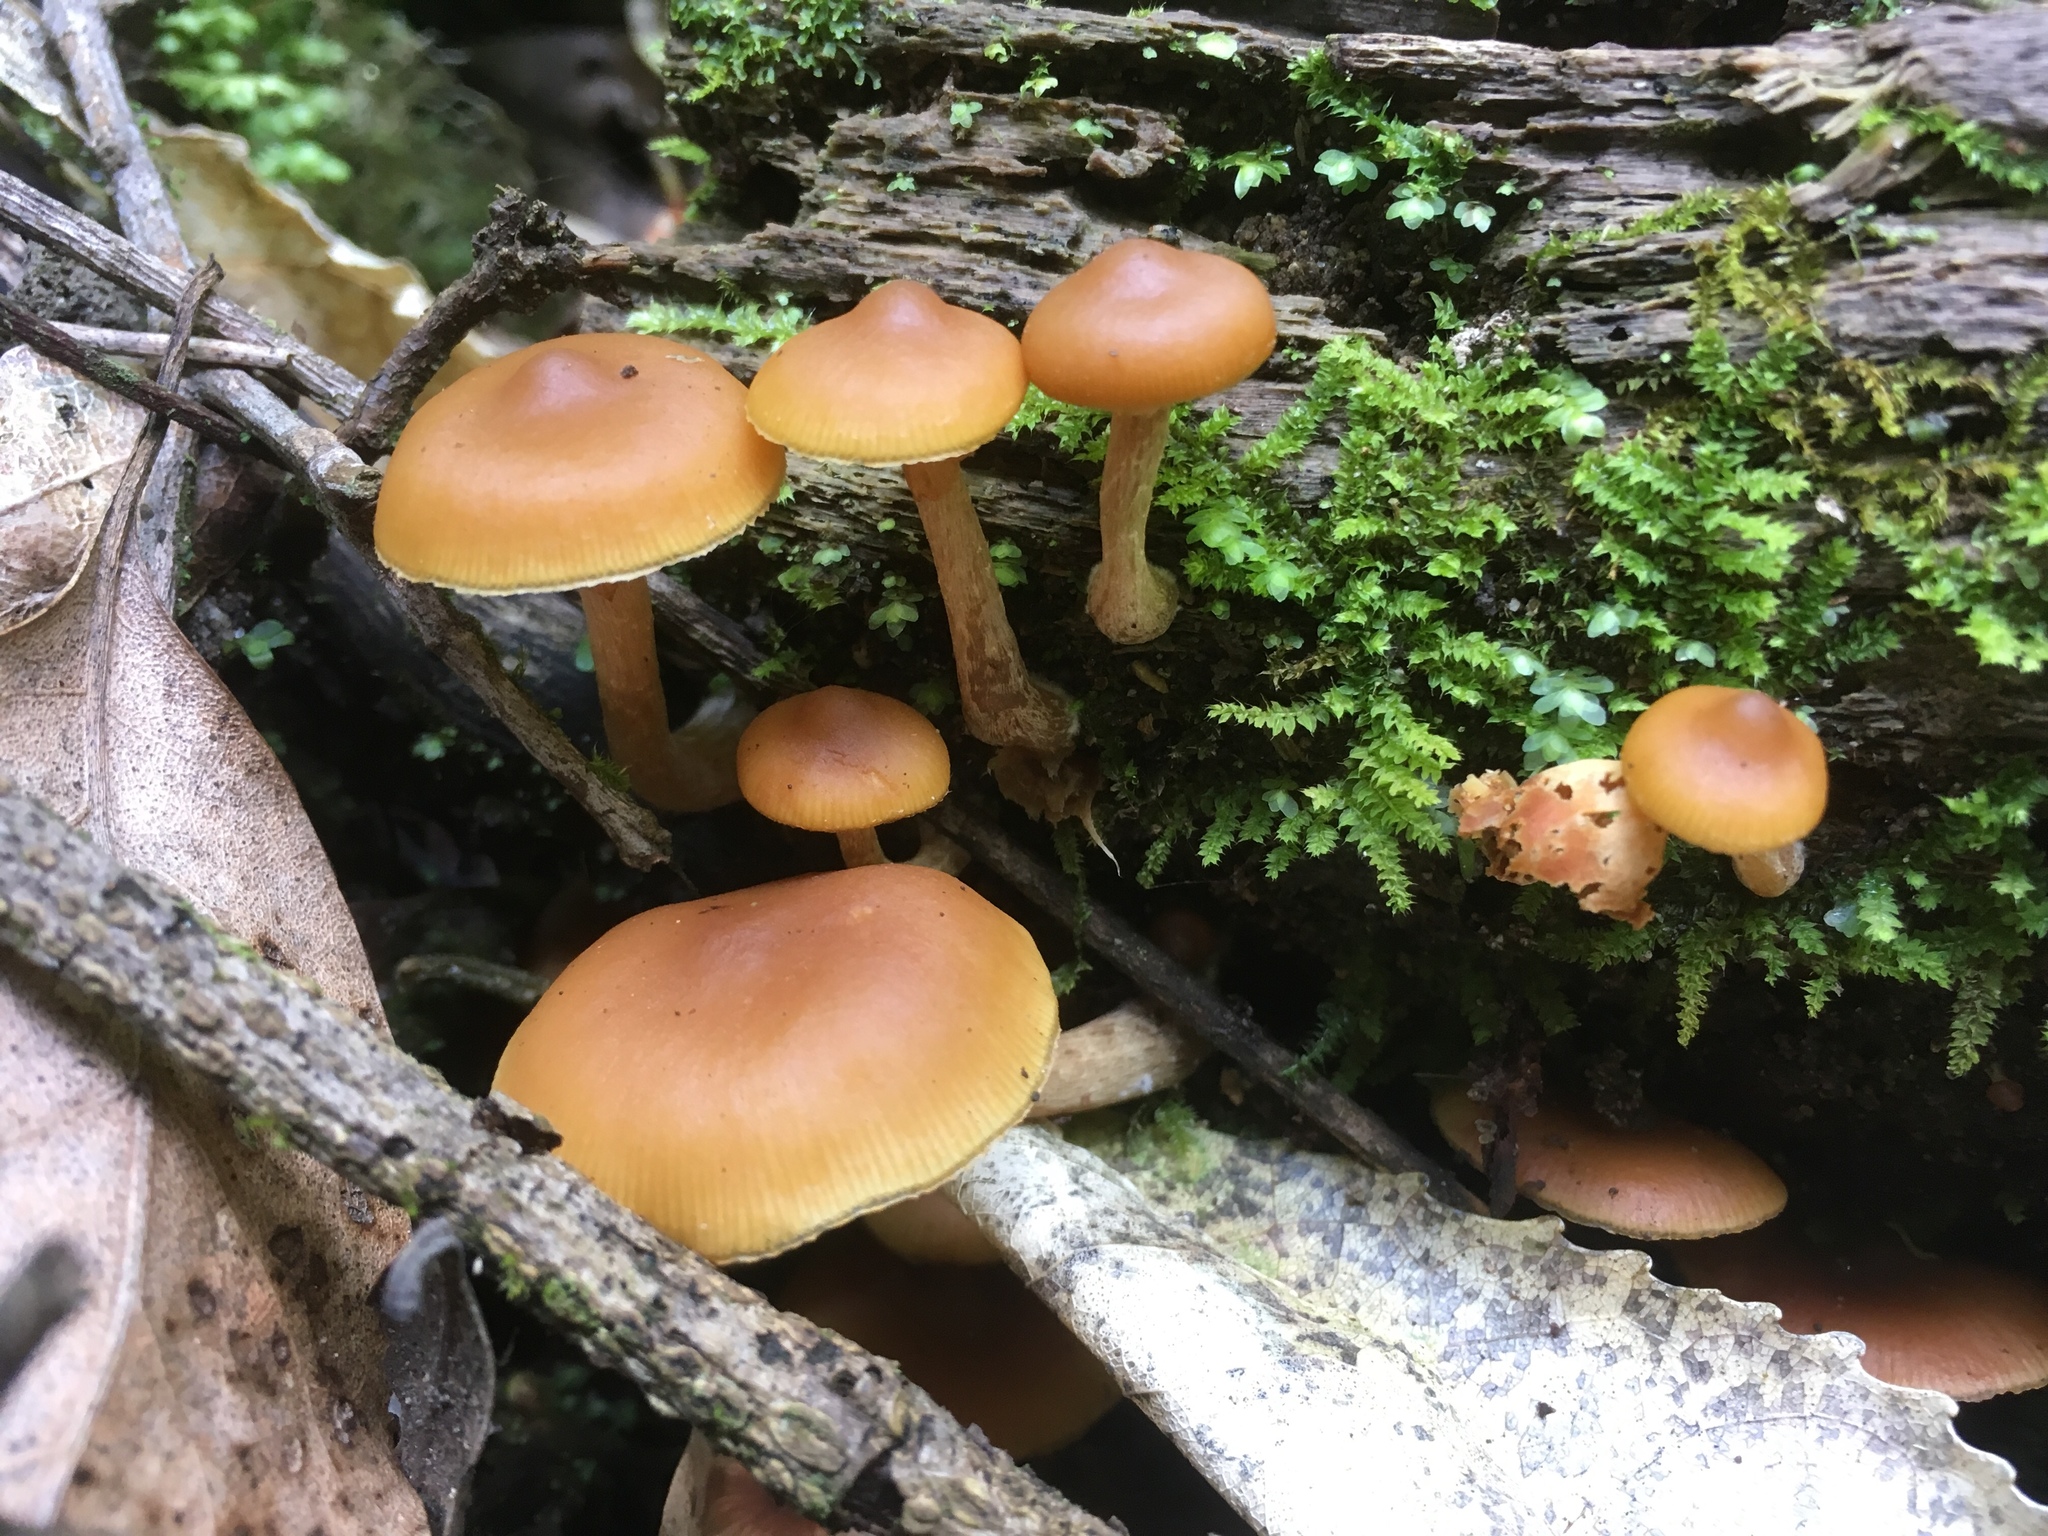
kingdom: Fungi
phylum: Basidiomycota
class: Agaricomycetes
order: Agaricales
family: Hymenogastraceae
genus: Galerina
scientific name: Galerina patagonica
